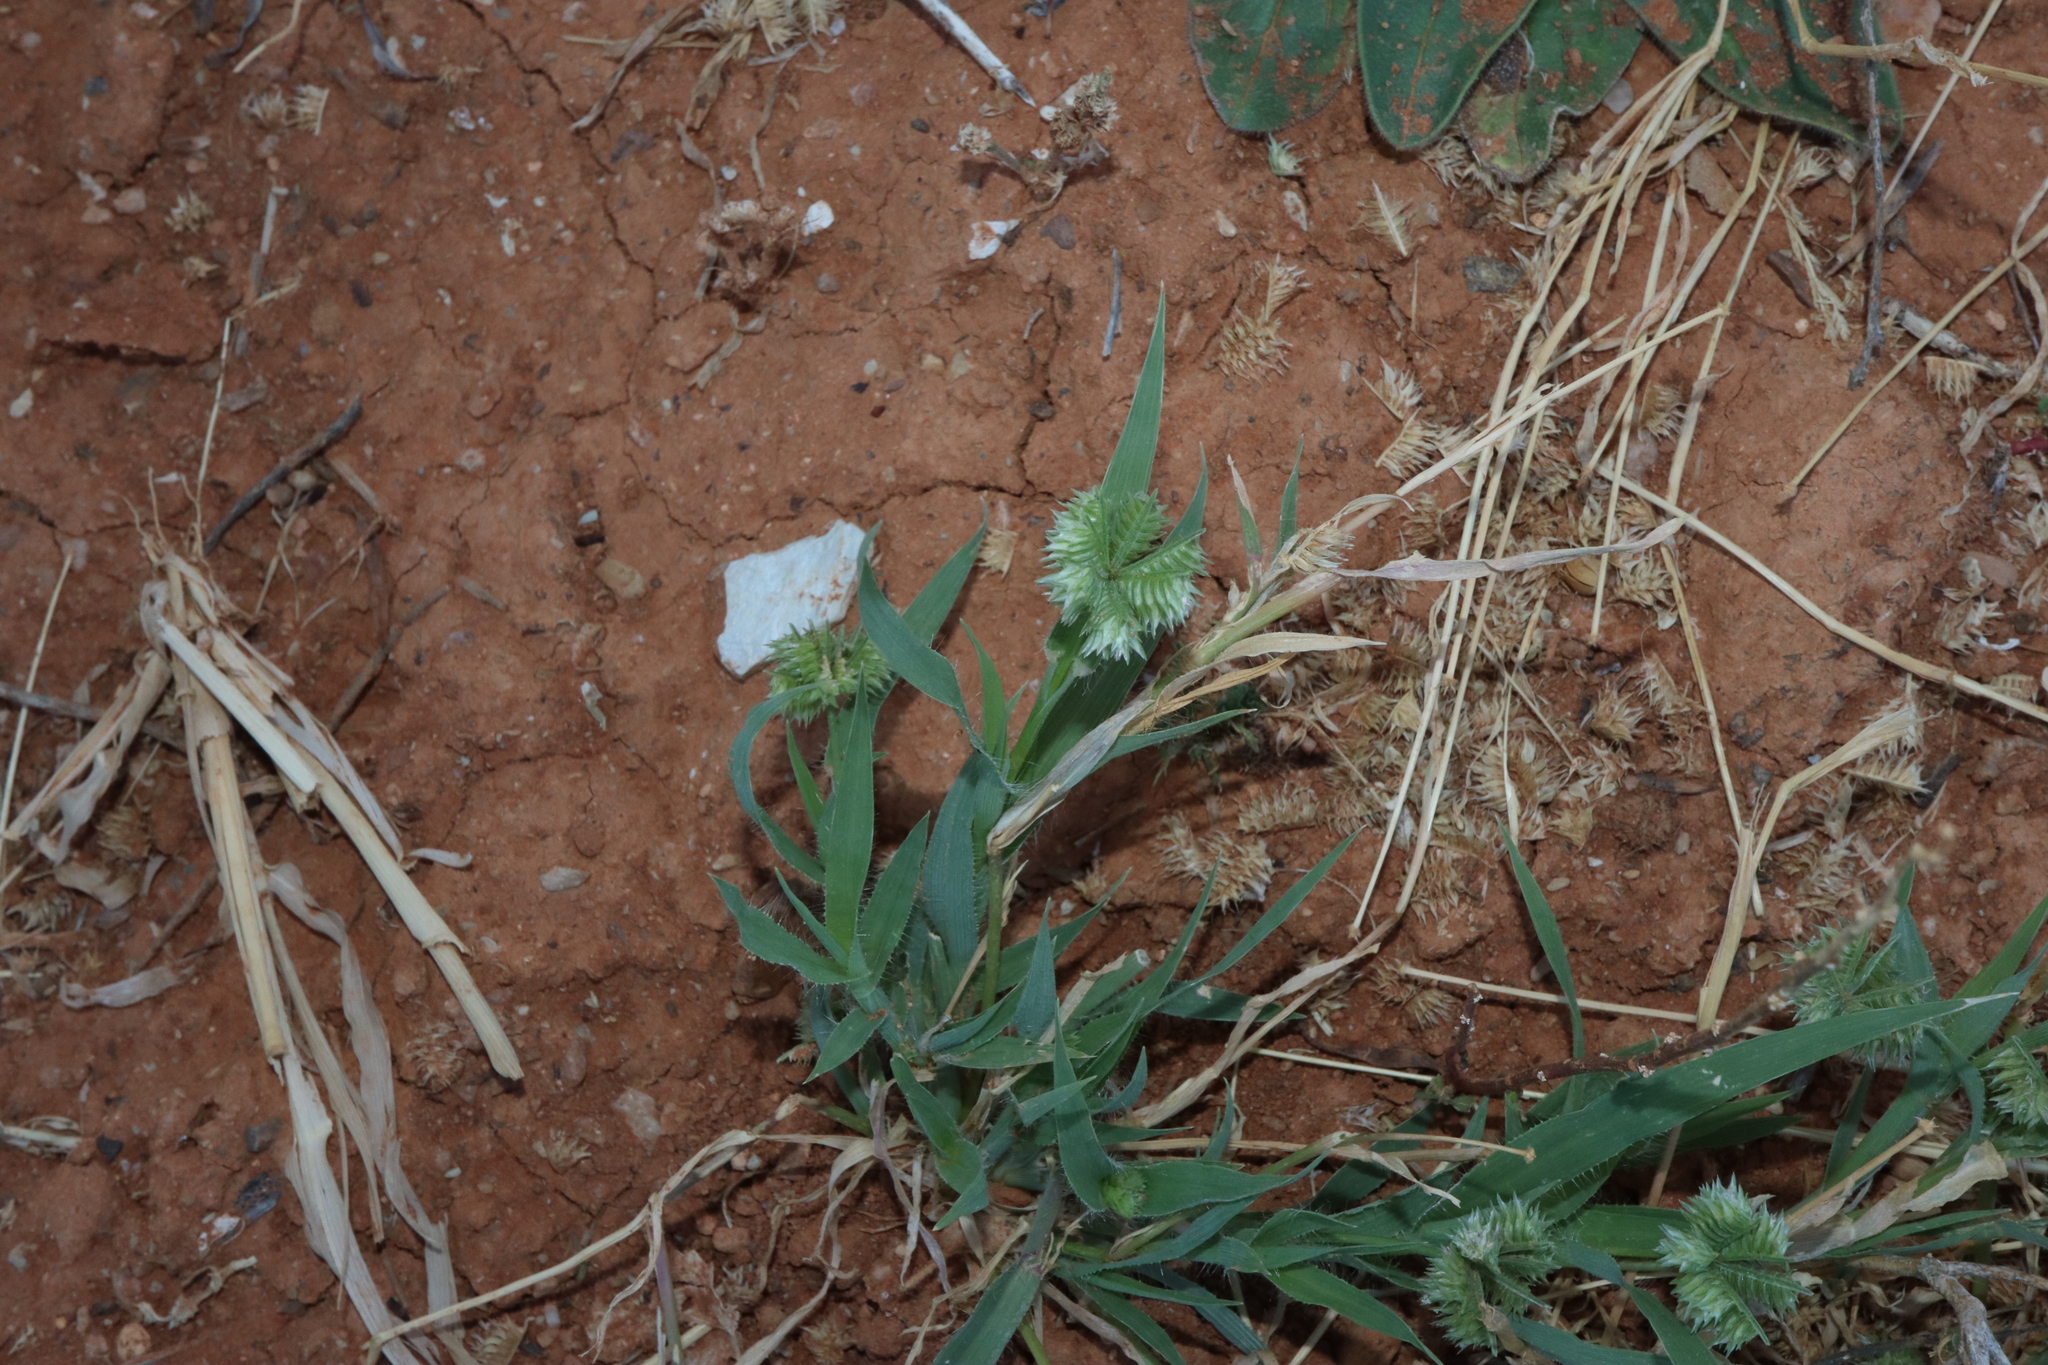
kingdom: Plantae
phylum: Tracheophyta
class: Liliopsida
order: Poales
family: Poaceae
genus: Dactyloctenium
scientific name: Dactyloctenium radulans
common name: Button-grass
